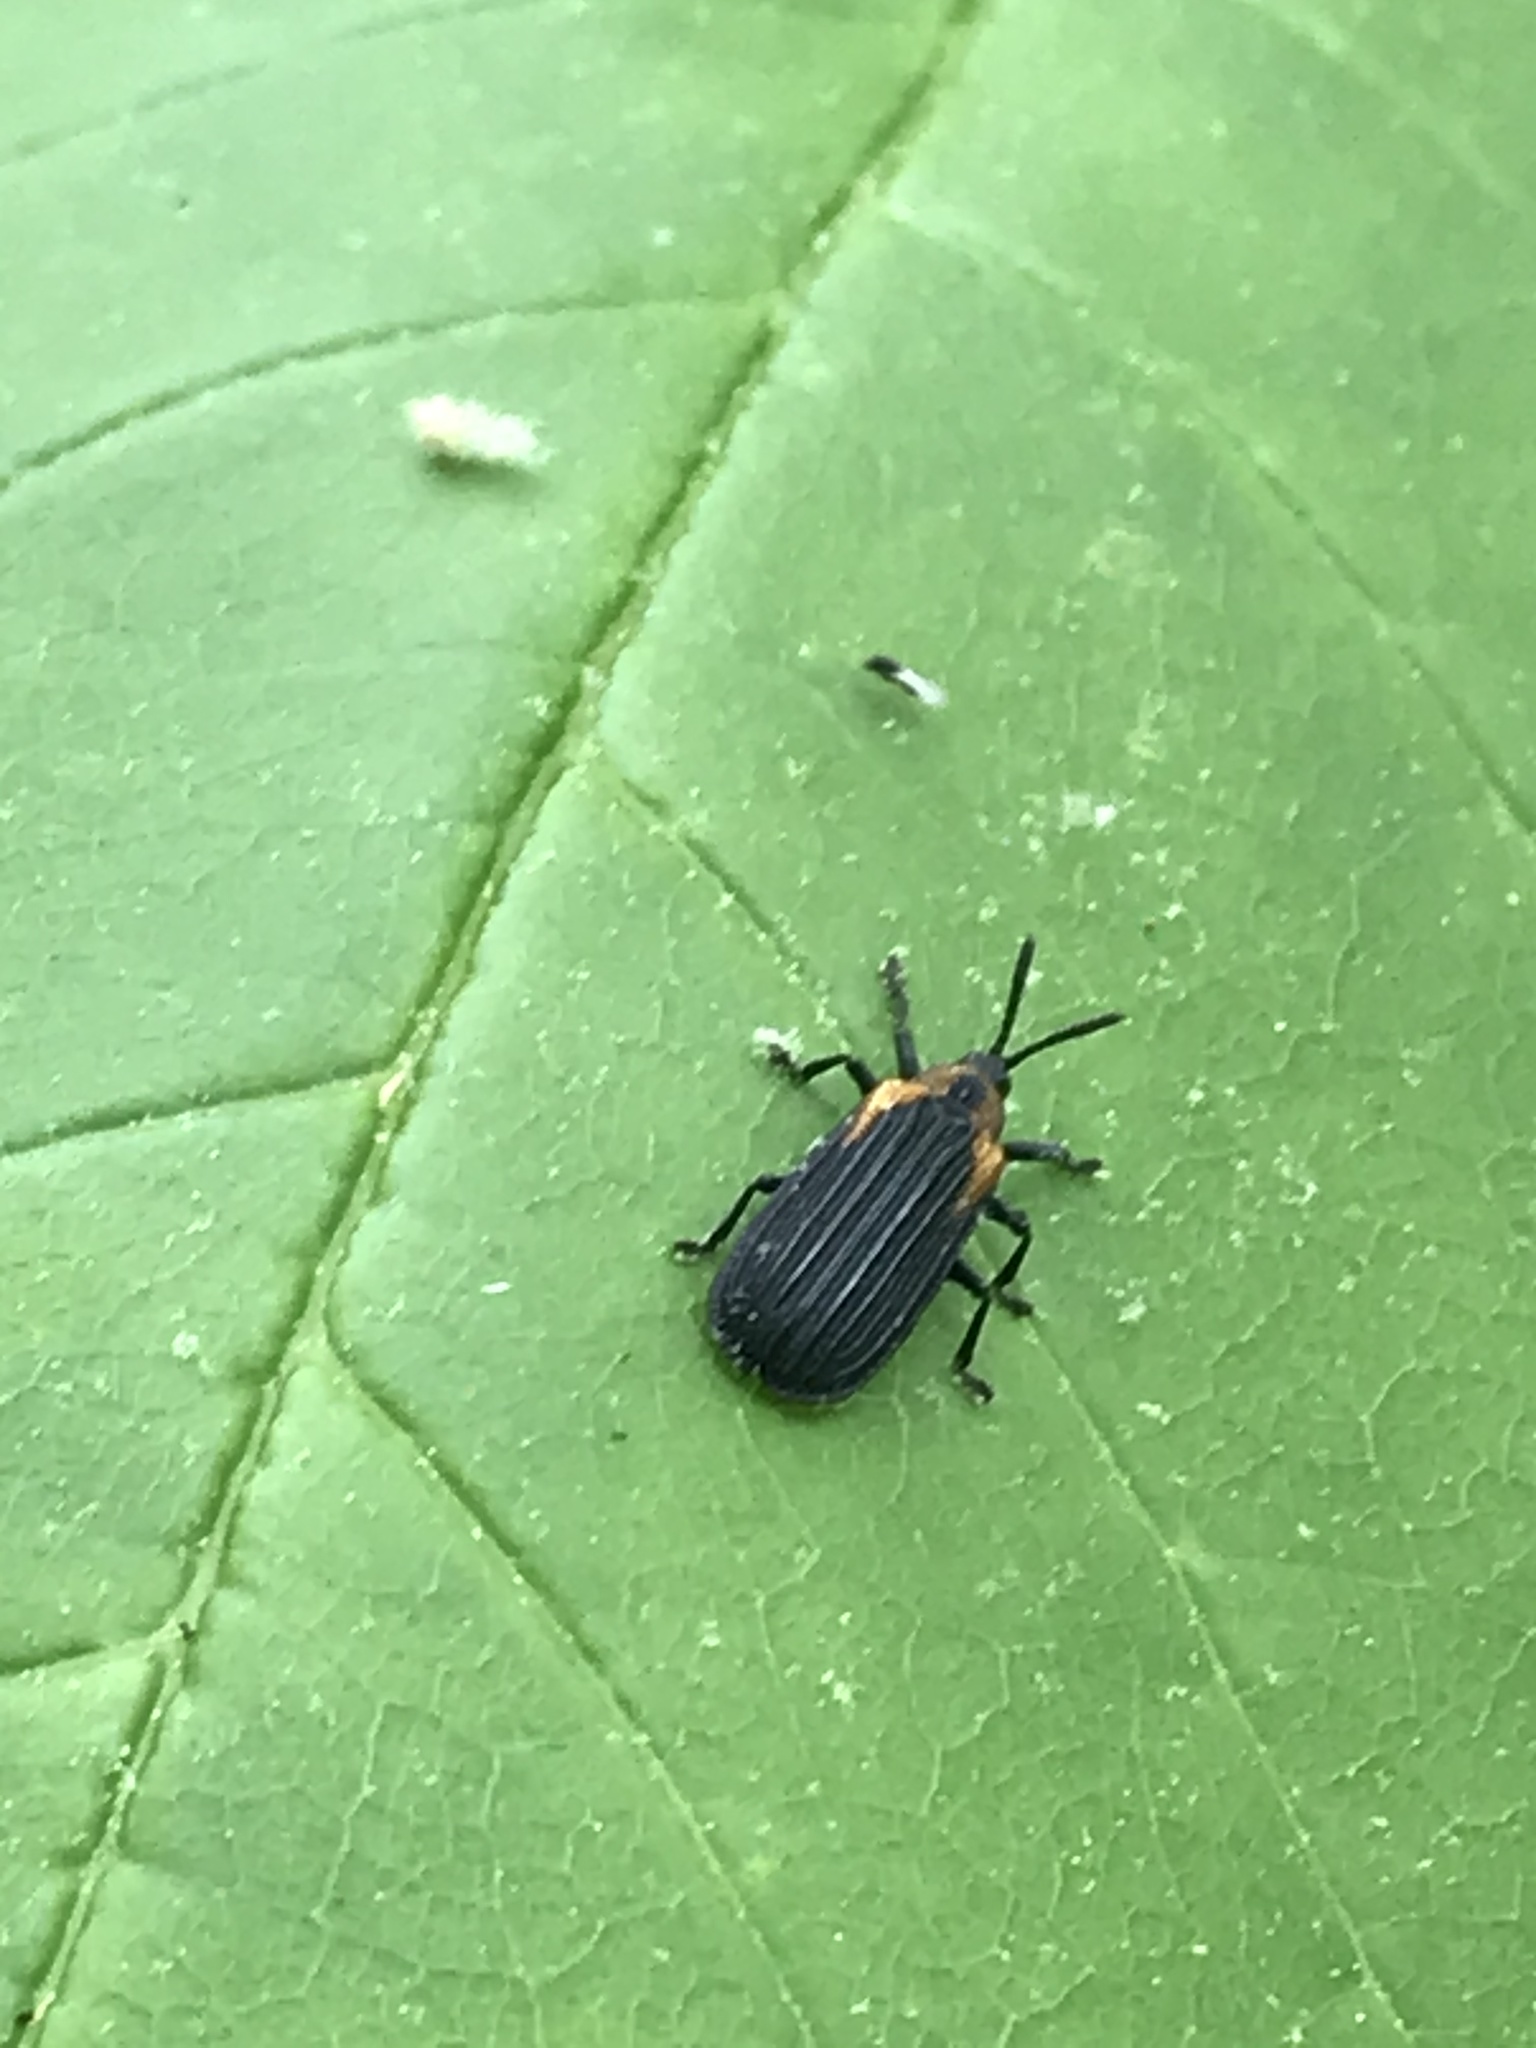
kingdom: Animalia
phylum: Arthropoda
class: Insecta
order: Coleoptera
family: Chrysomelidae
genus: Odontota
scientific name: Odontota scapularis
